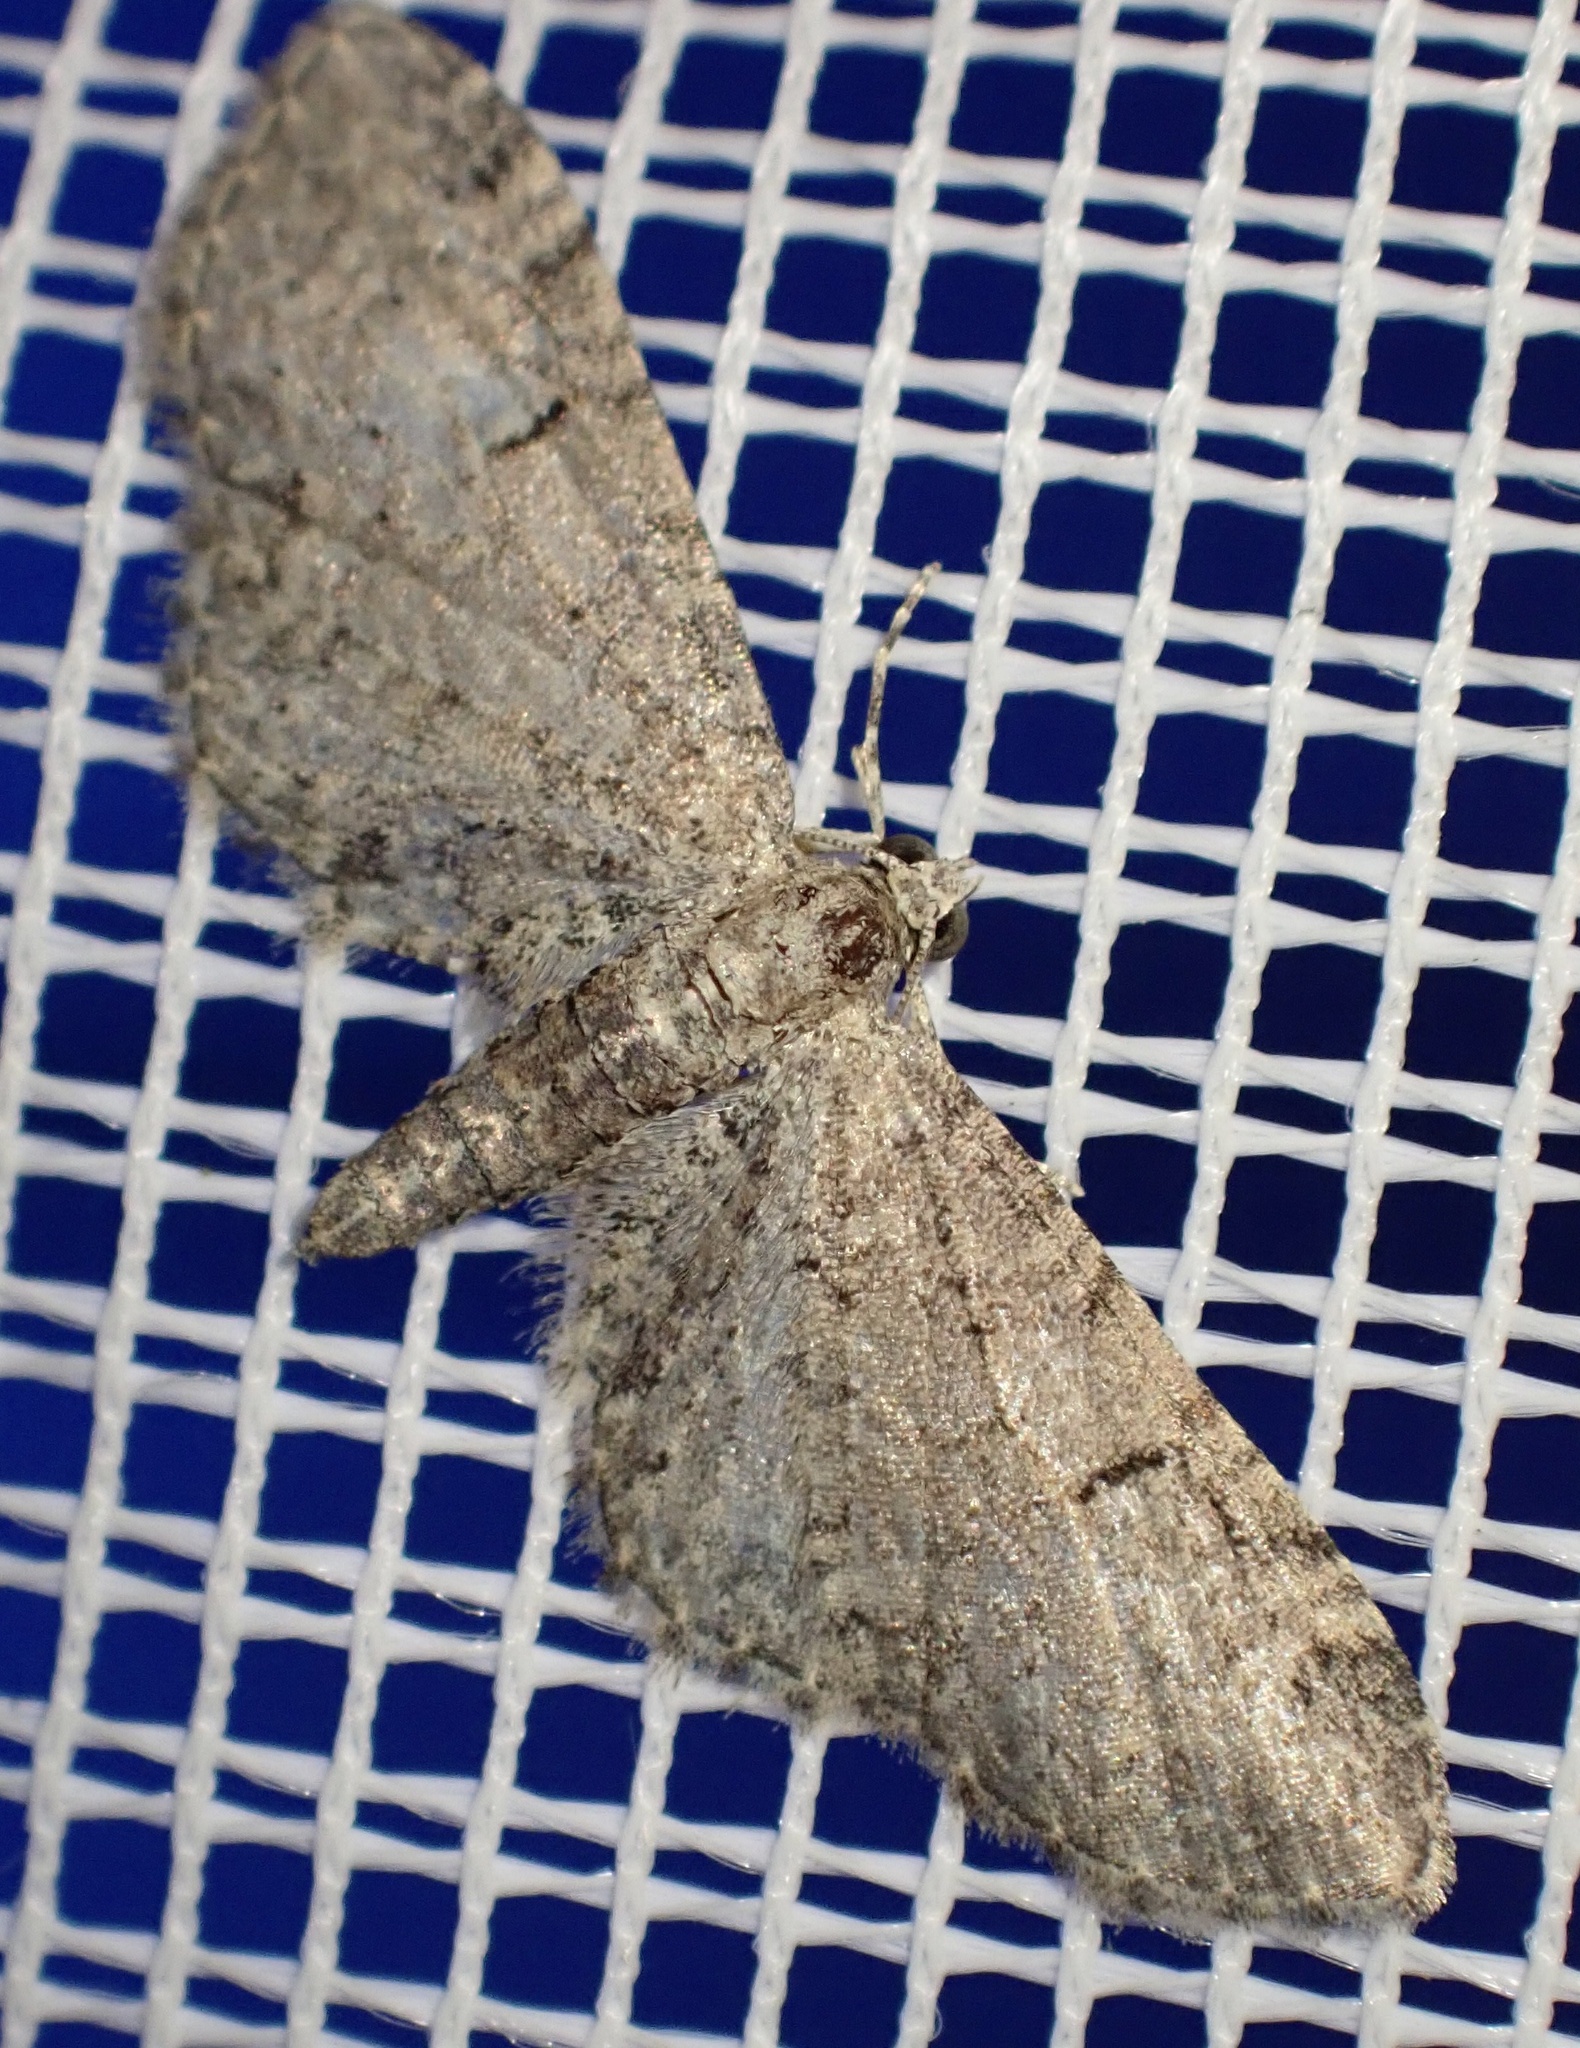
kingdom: Animalia
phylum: Arthropoda
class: Insecta
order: Lepidoptera
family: Geometridae
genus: Eupithecia
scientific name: Eupithecia ultimaria
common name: Channel islands pug
